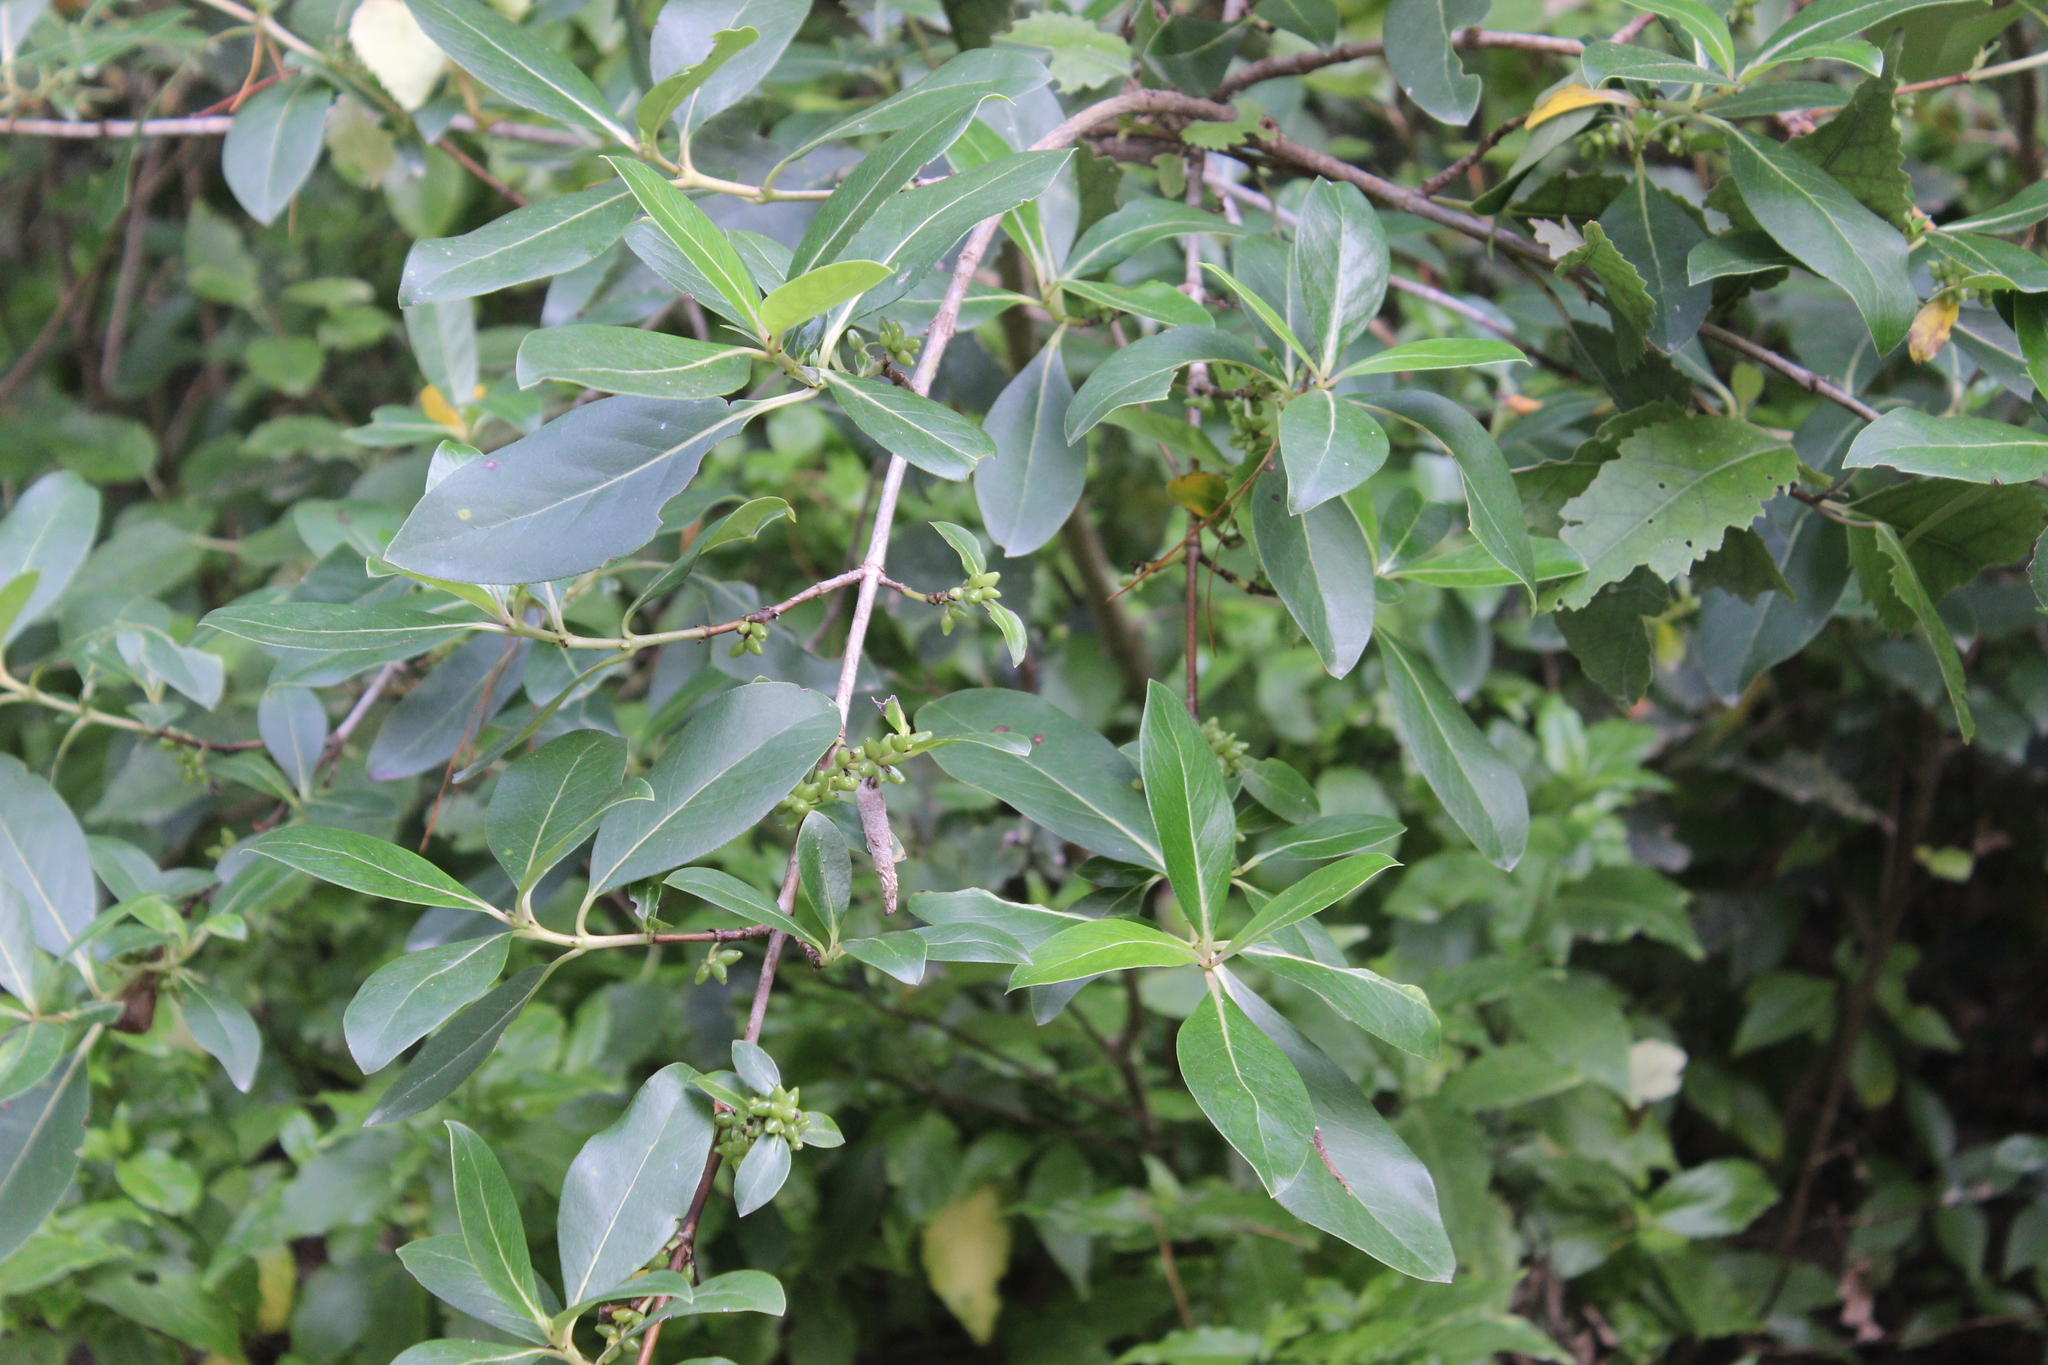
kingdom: Plantae
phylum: Tracheophyta
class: Magnoliopsida
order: Gentianales
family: Rubiaceae
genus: Coprosma
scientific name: Coprosma robusta
